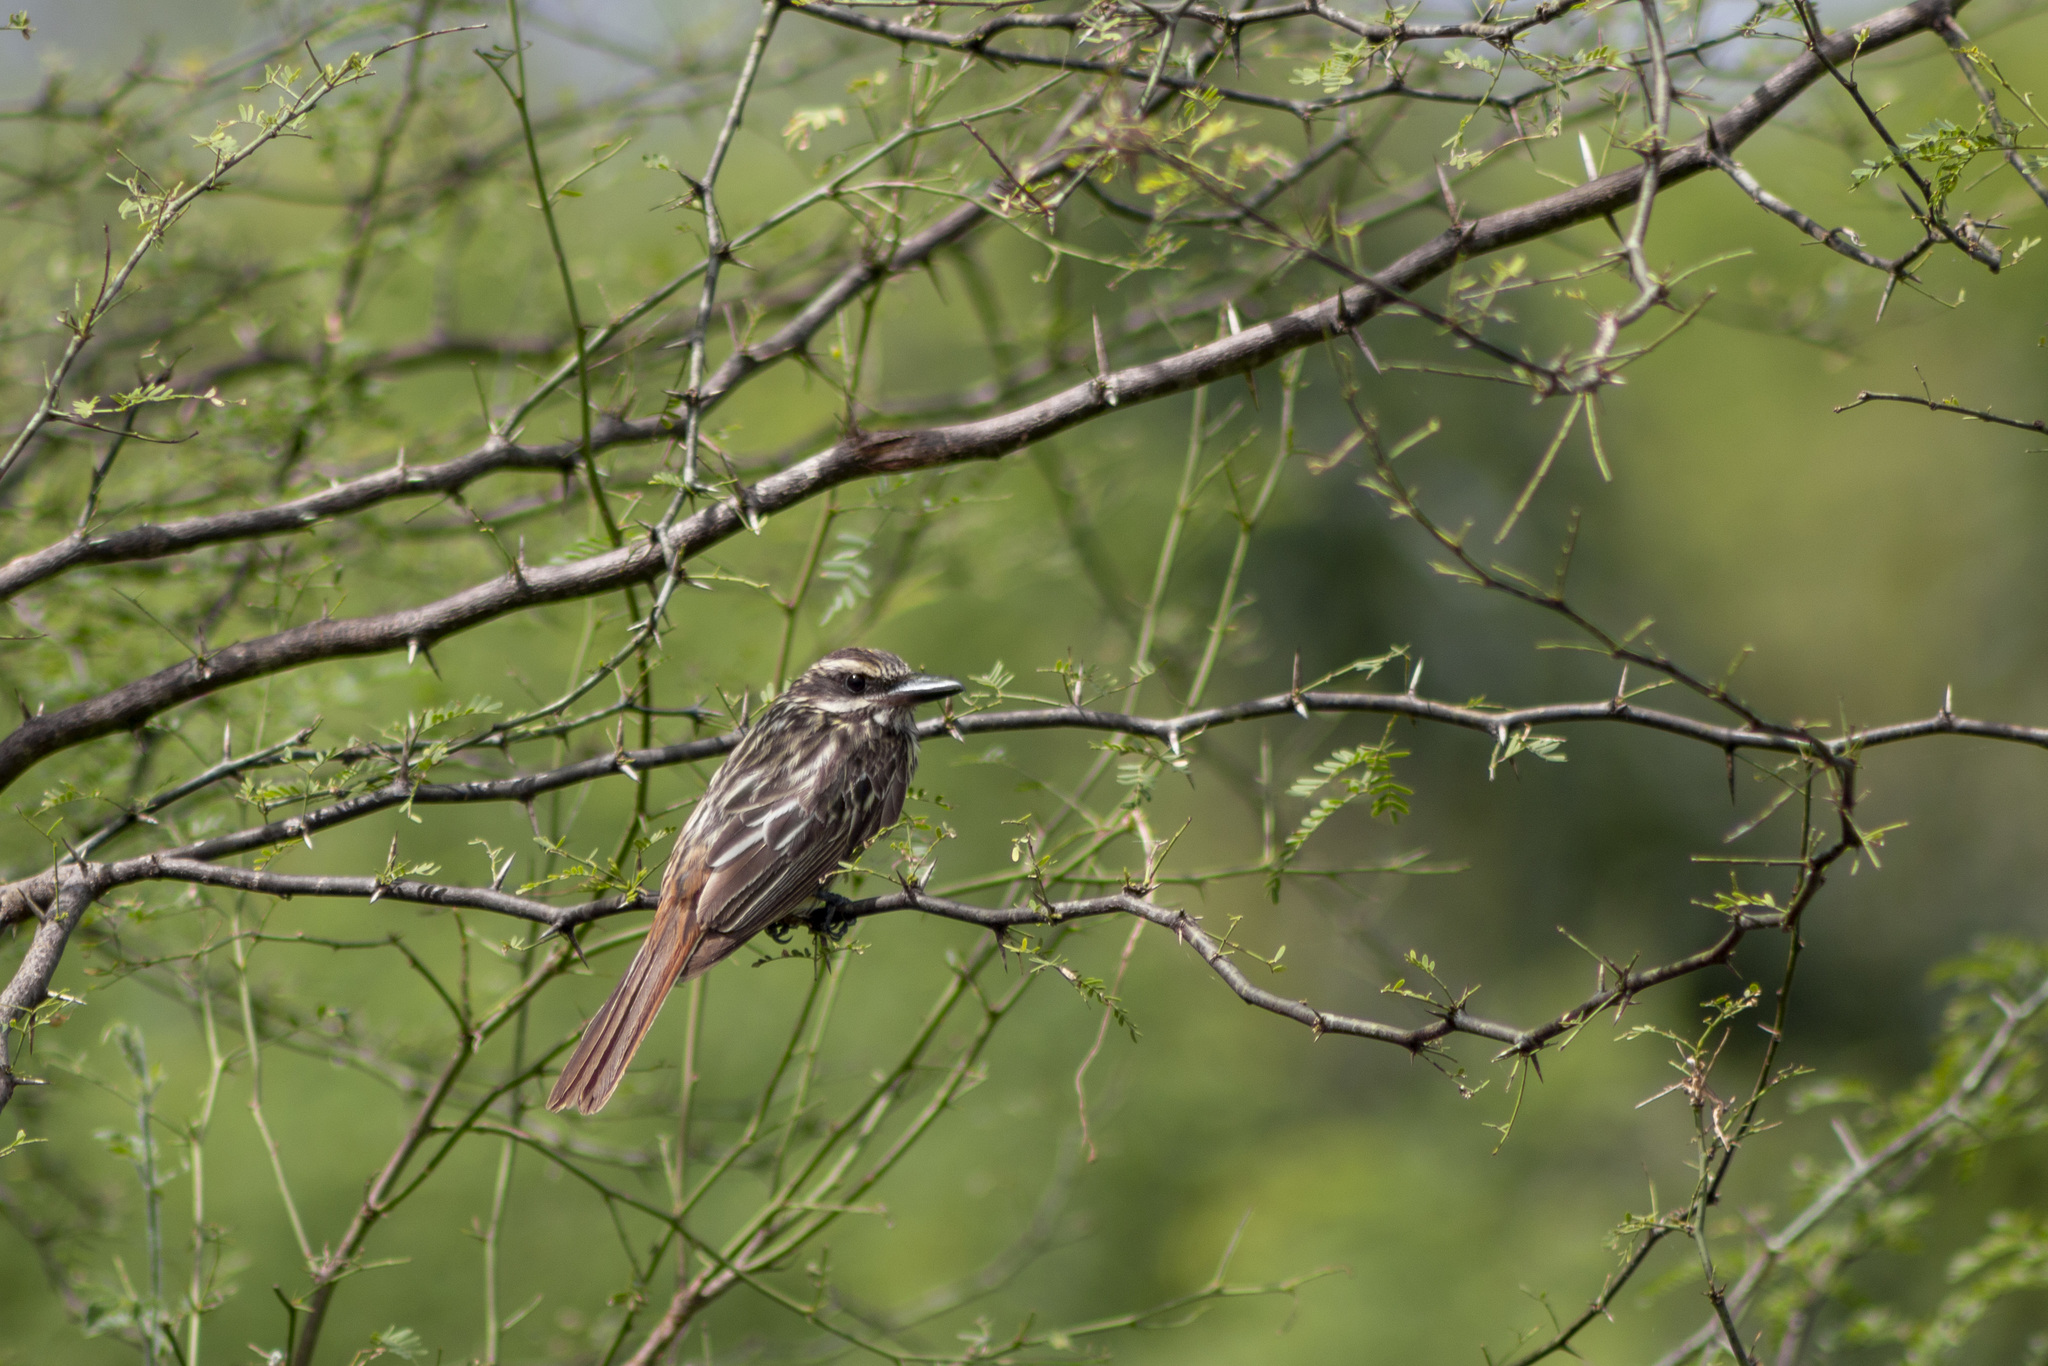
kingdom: Animalia
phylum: Chordata
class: Aves
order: Passeriformes
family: Tyrannidae
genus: Myiodynastes
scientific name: Myiodynastes maculatus
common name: Streaked flycatcher
